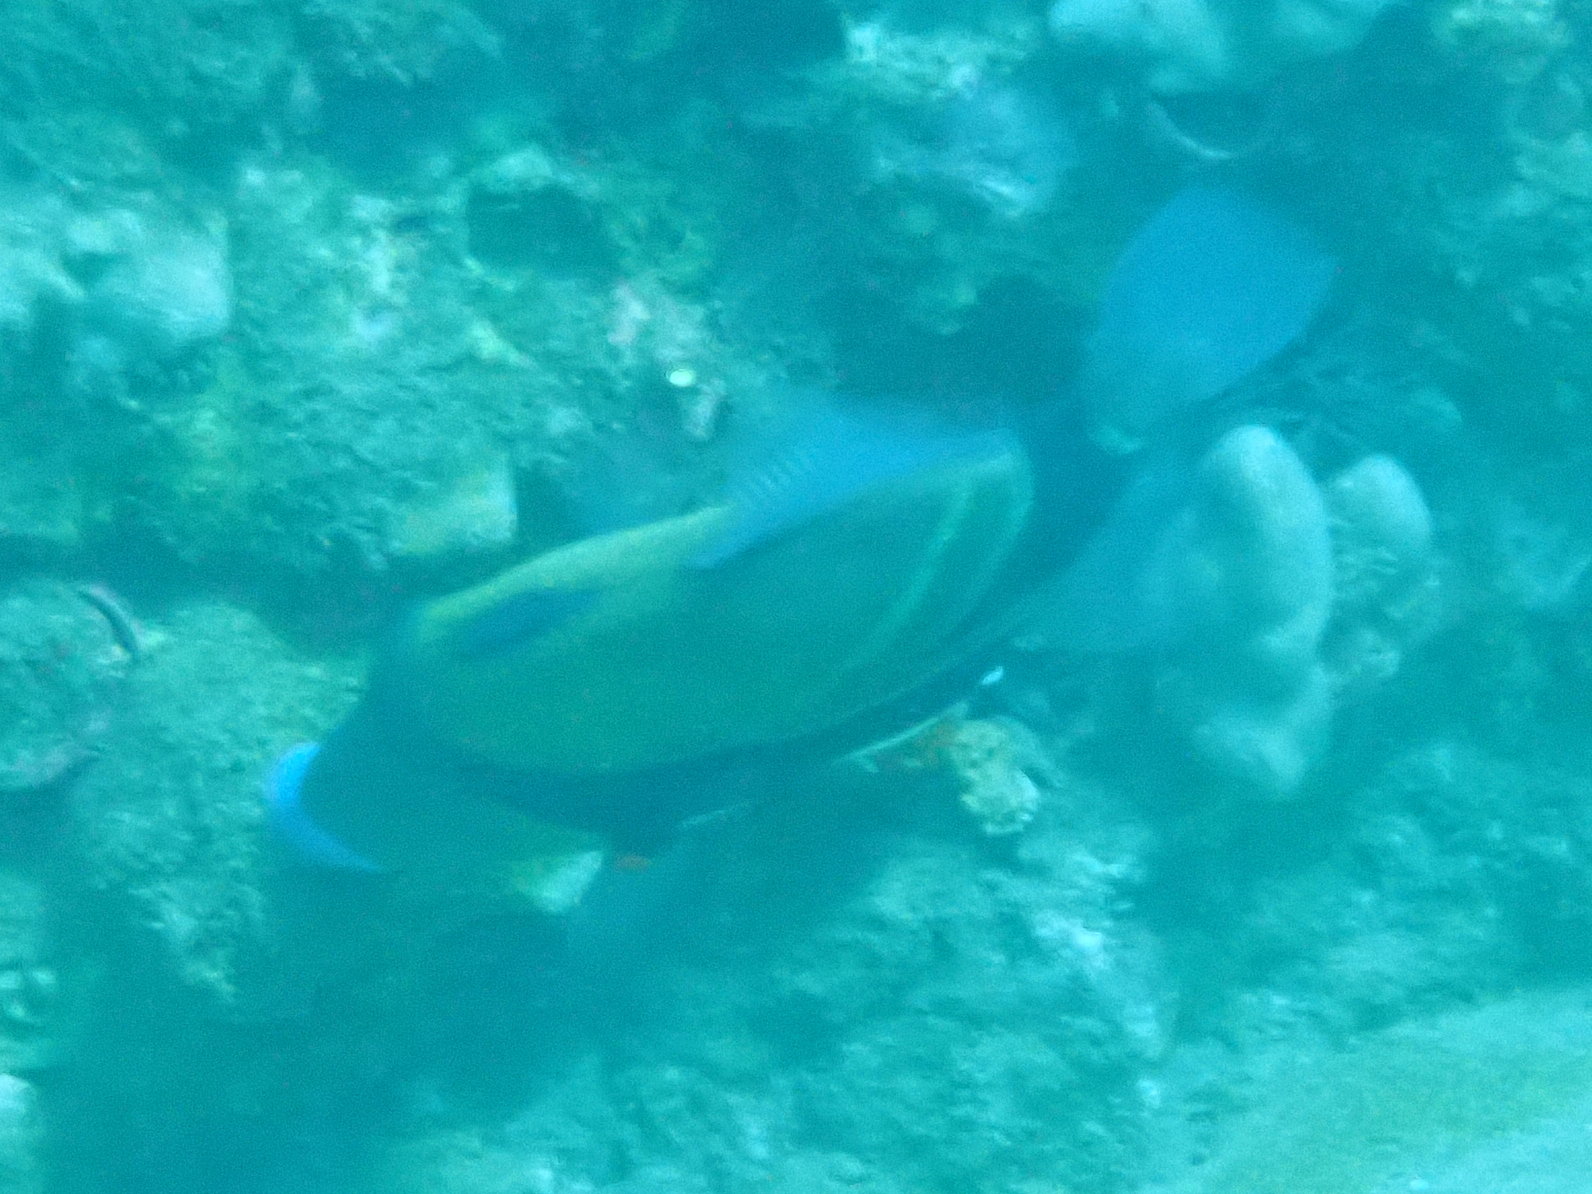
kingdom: Animalia
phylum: Chordata
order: Tetraodontiformes
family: Balistidae
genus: Rhinecanthus
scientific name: Rhinecanthus rectangulus
